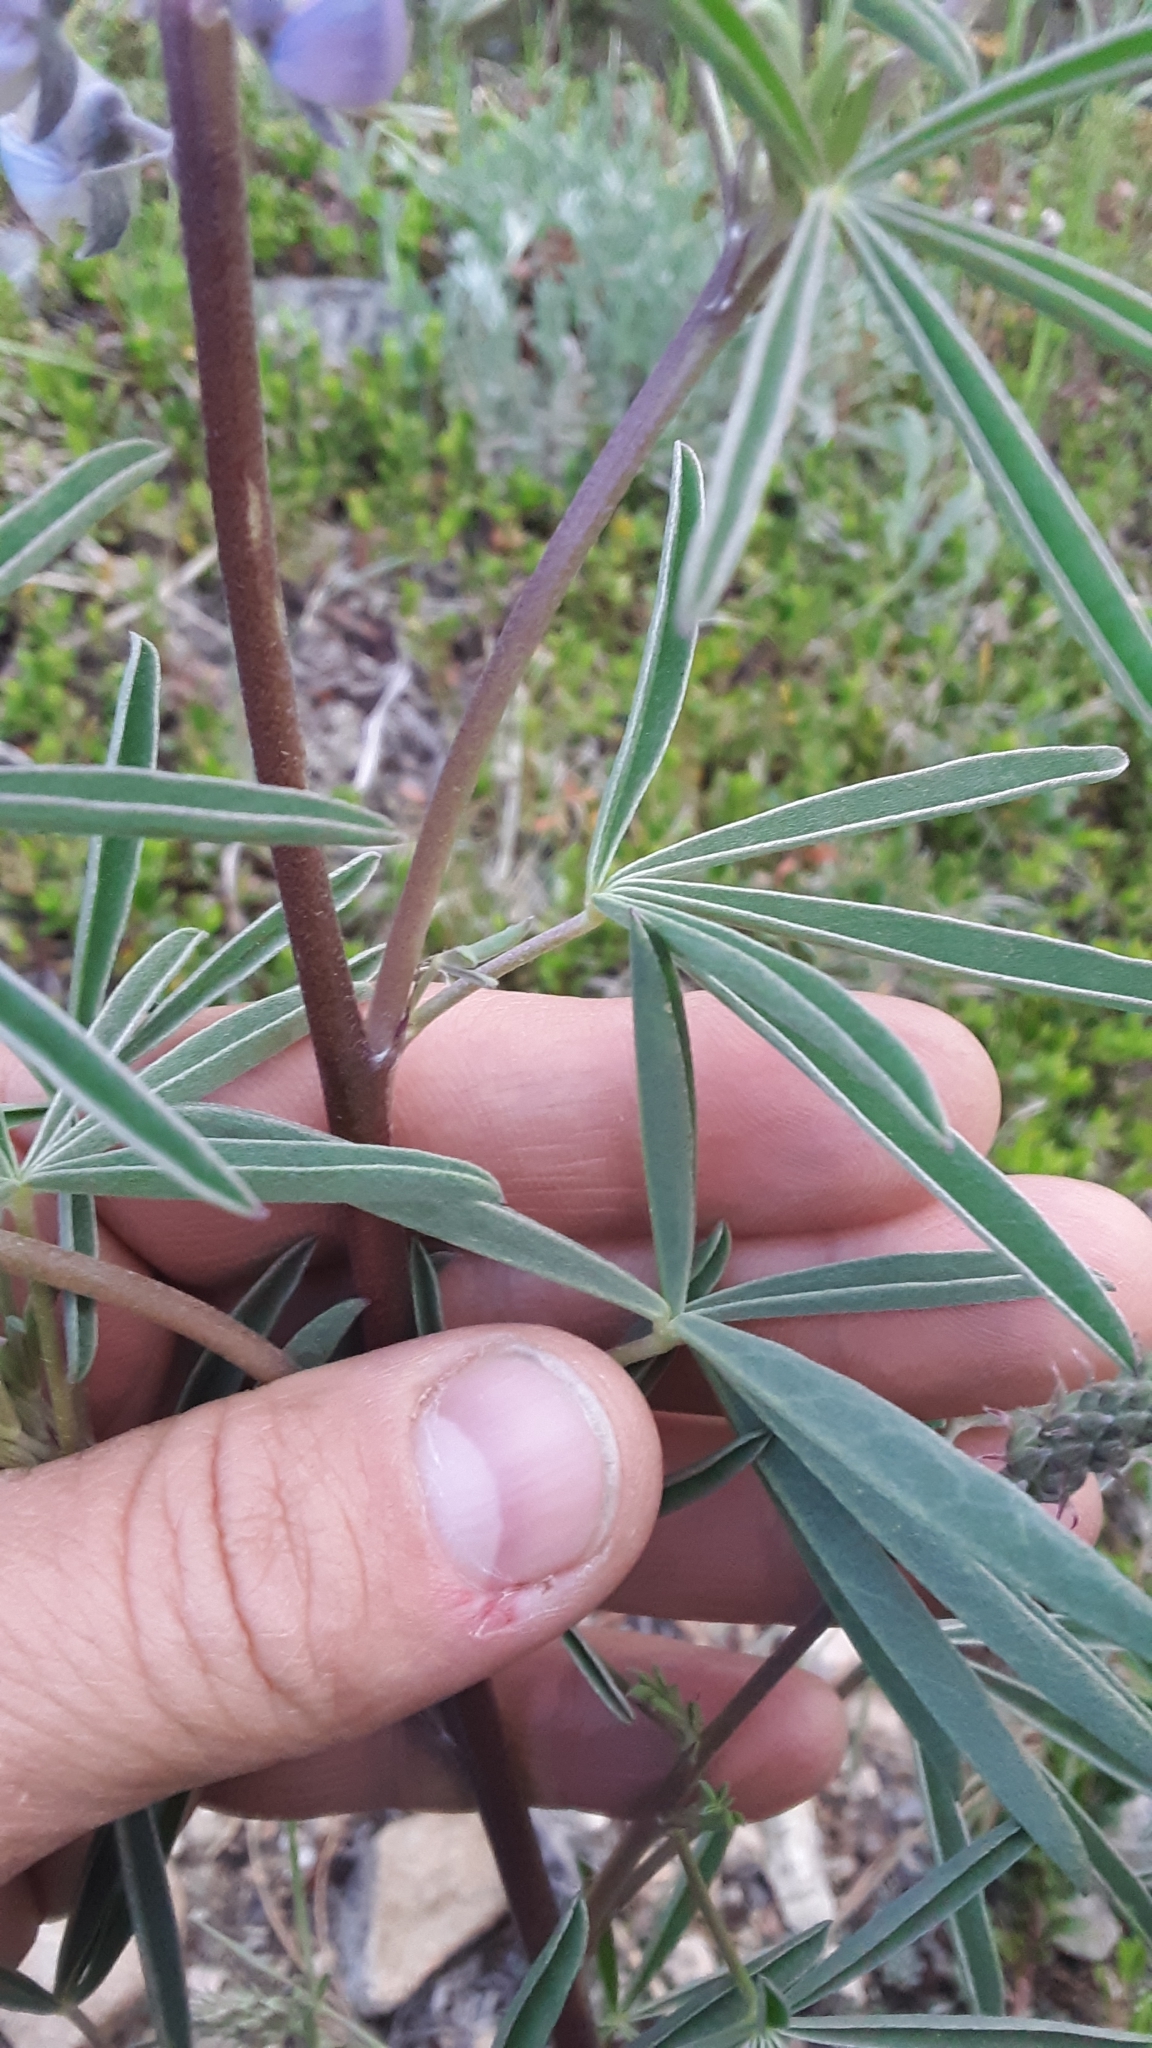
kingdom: Plantae
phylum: Tracheophyta
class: Magnoliopsida
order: Fabales
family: Fabaceae
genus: Lupinus
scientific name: Lupinus argenteus
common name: Silvery lupine
